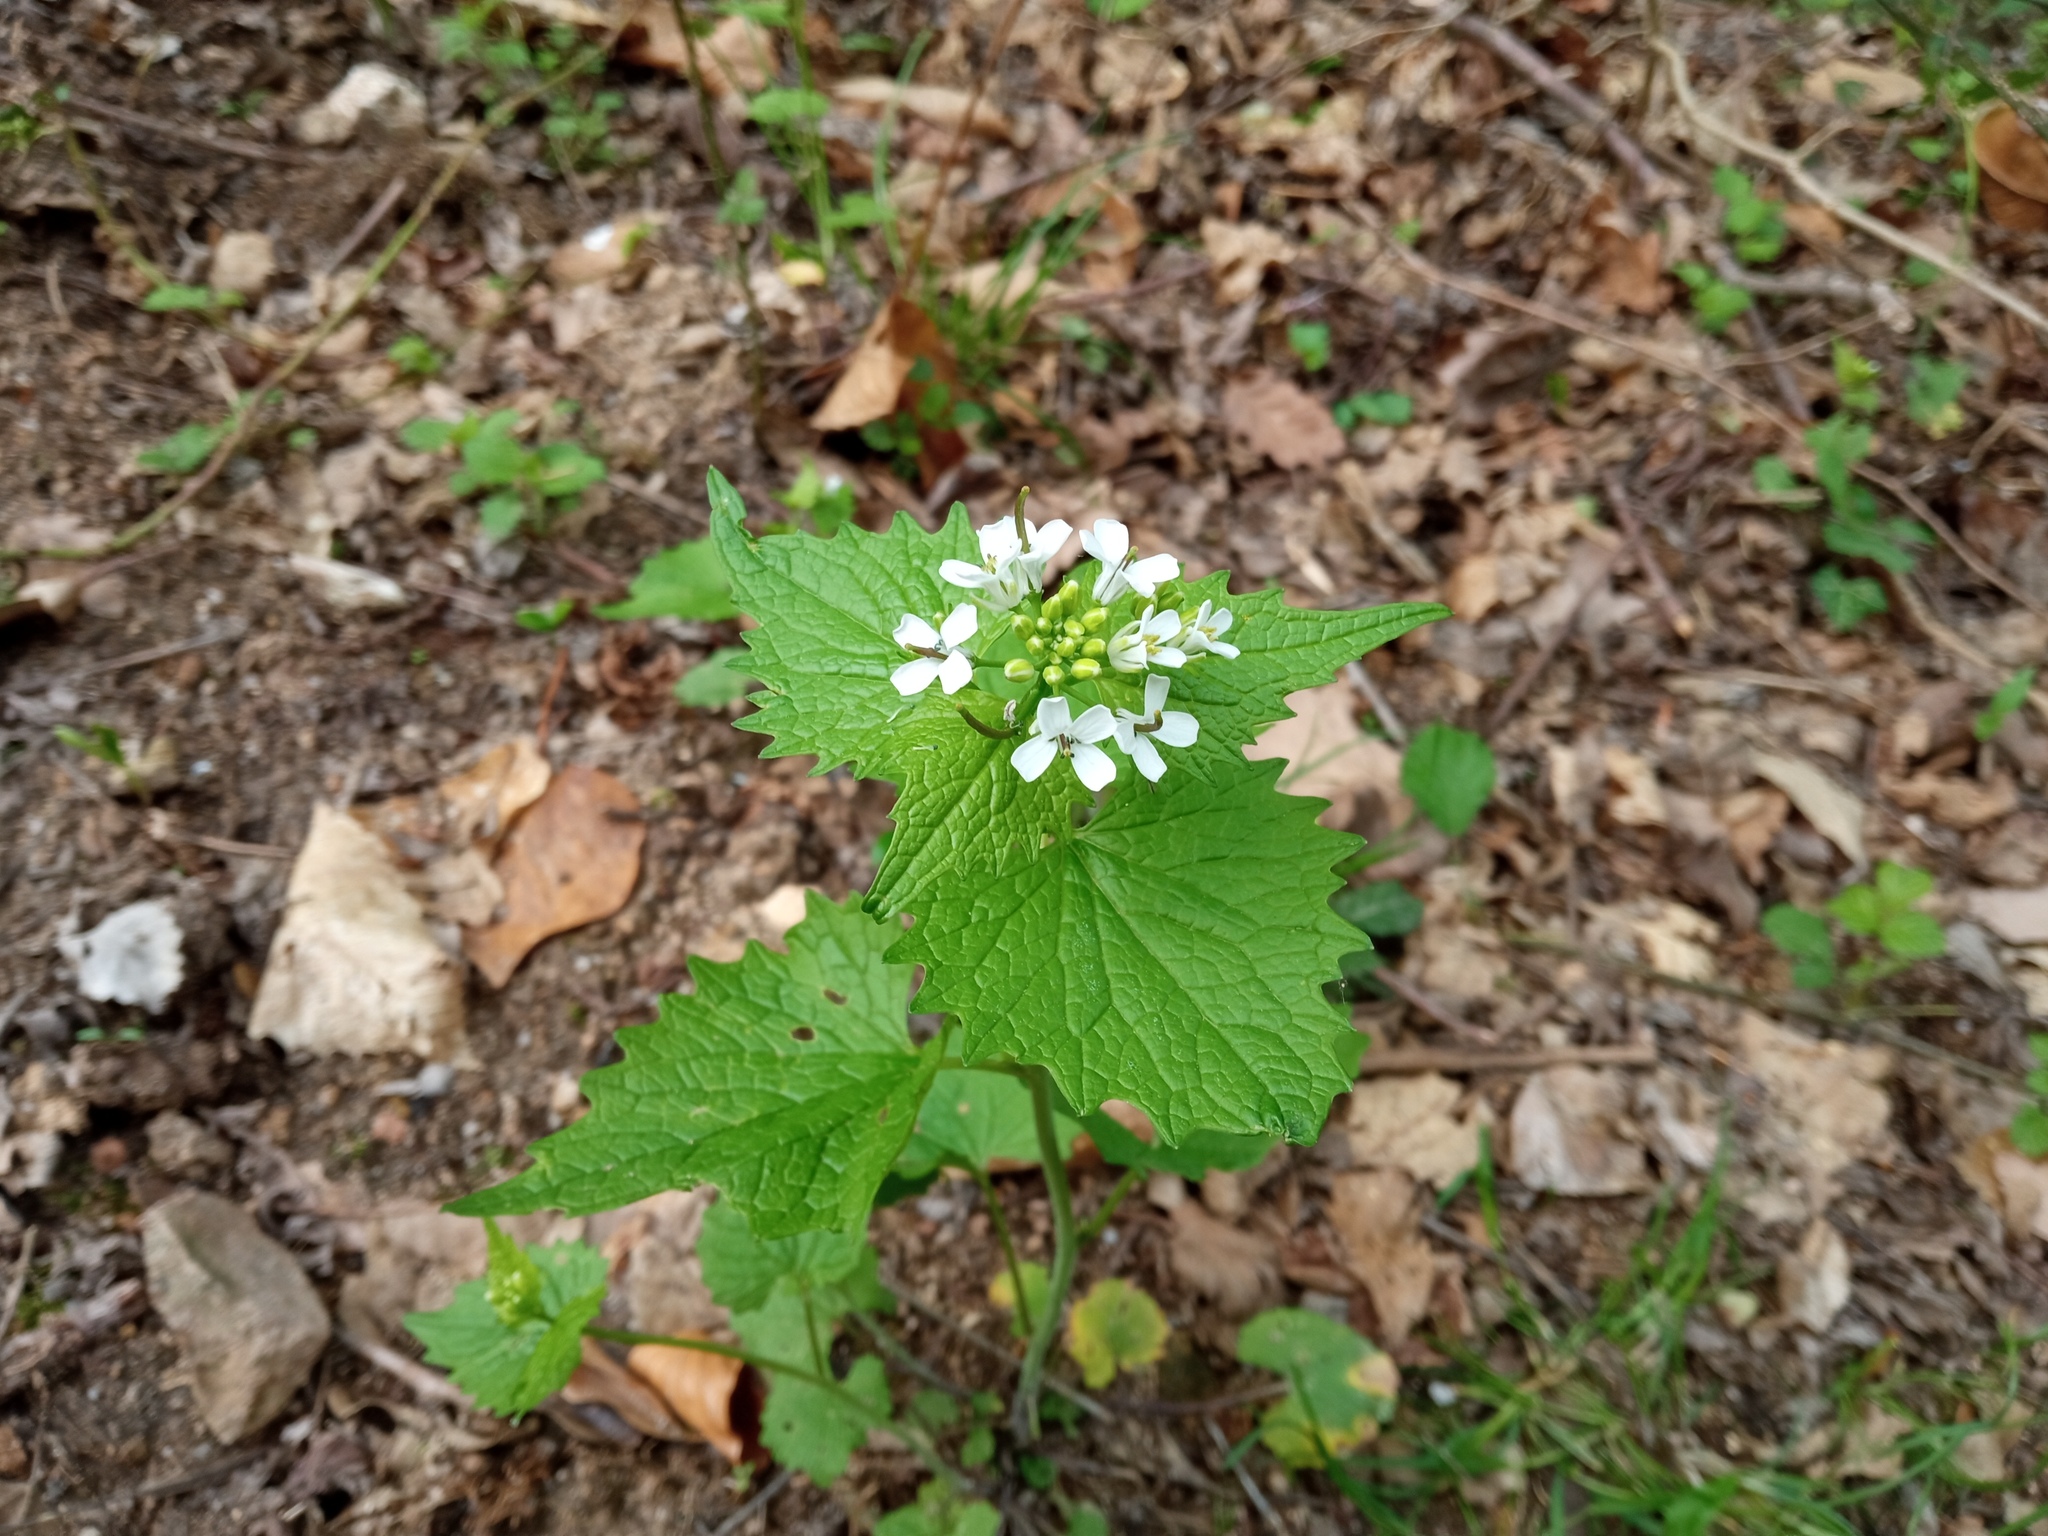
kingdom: Plantae
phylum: Tracheophyta
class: Magnoliopsida
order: Brassicales
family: Brassicaceae
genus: Alliaria
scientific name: Alliaria petiolata
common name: Garlic mustard
